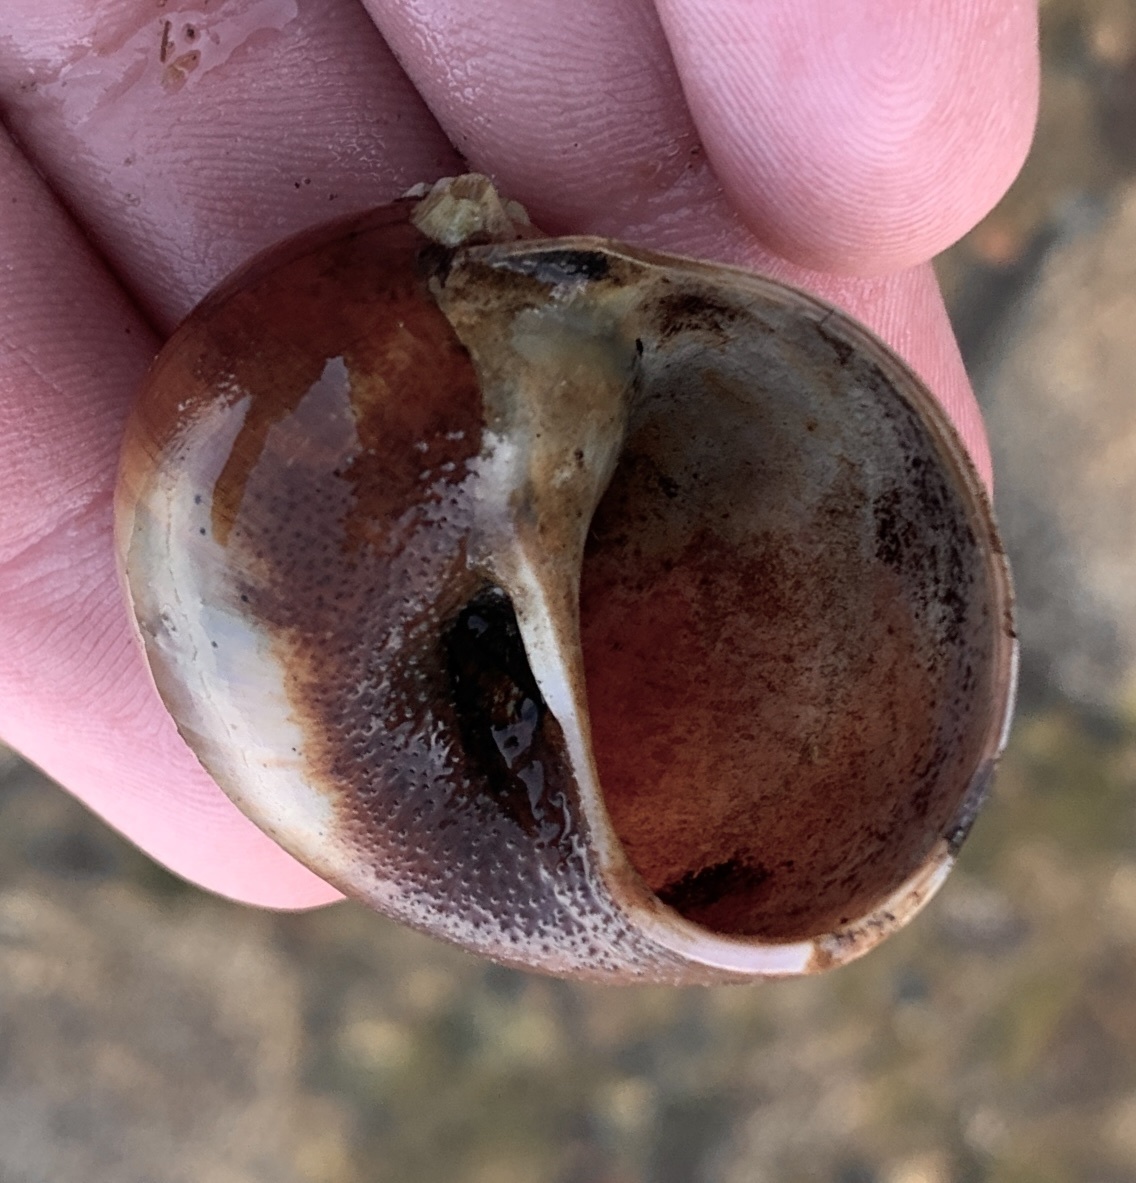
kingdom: Animalia
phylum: Mollusca
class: Gastropoda
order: Littorinimorpha
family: Naticidae
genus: Euspira
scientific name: Euspira heros
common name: Common northern moonsnail
